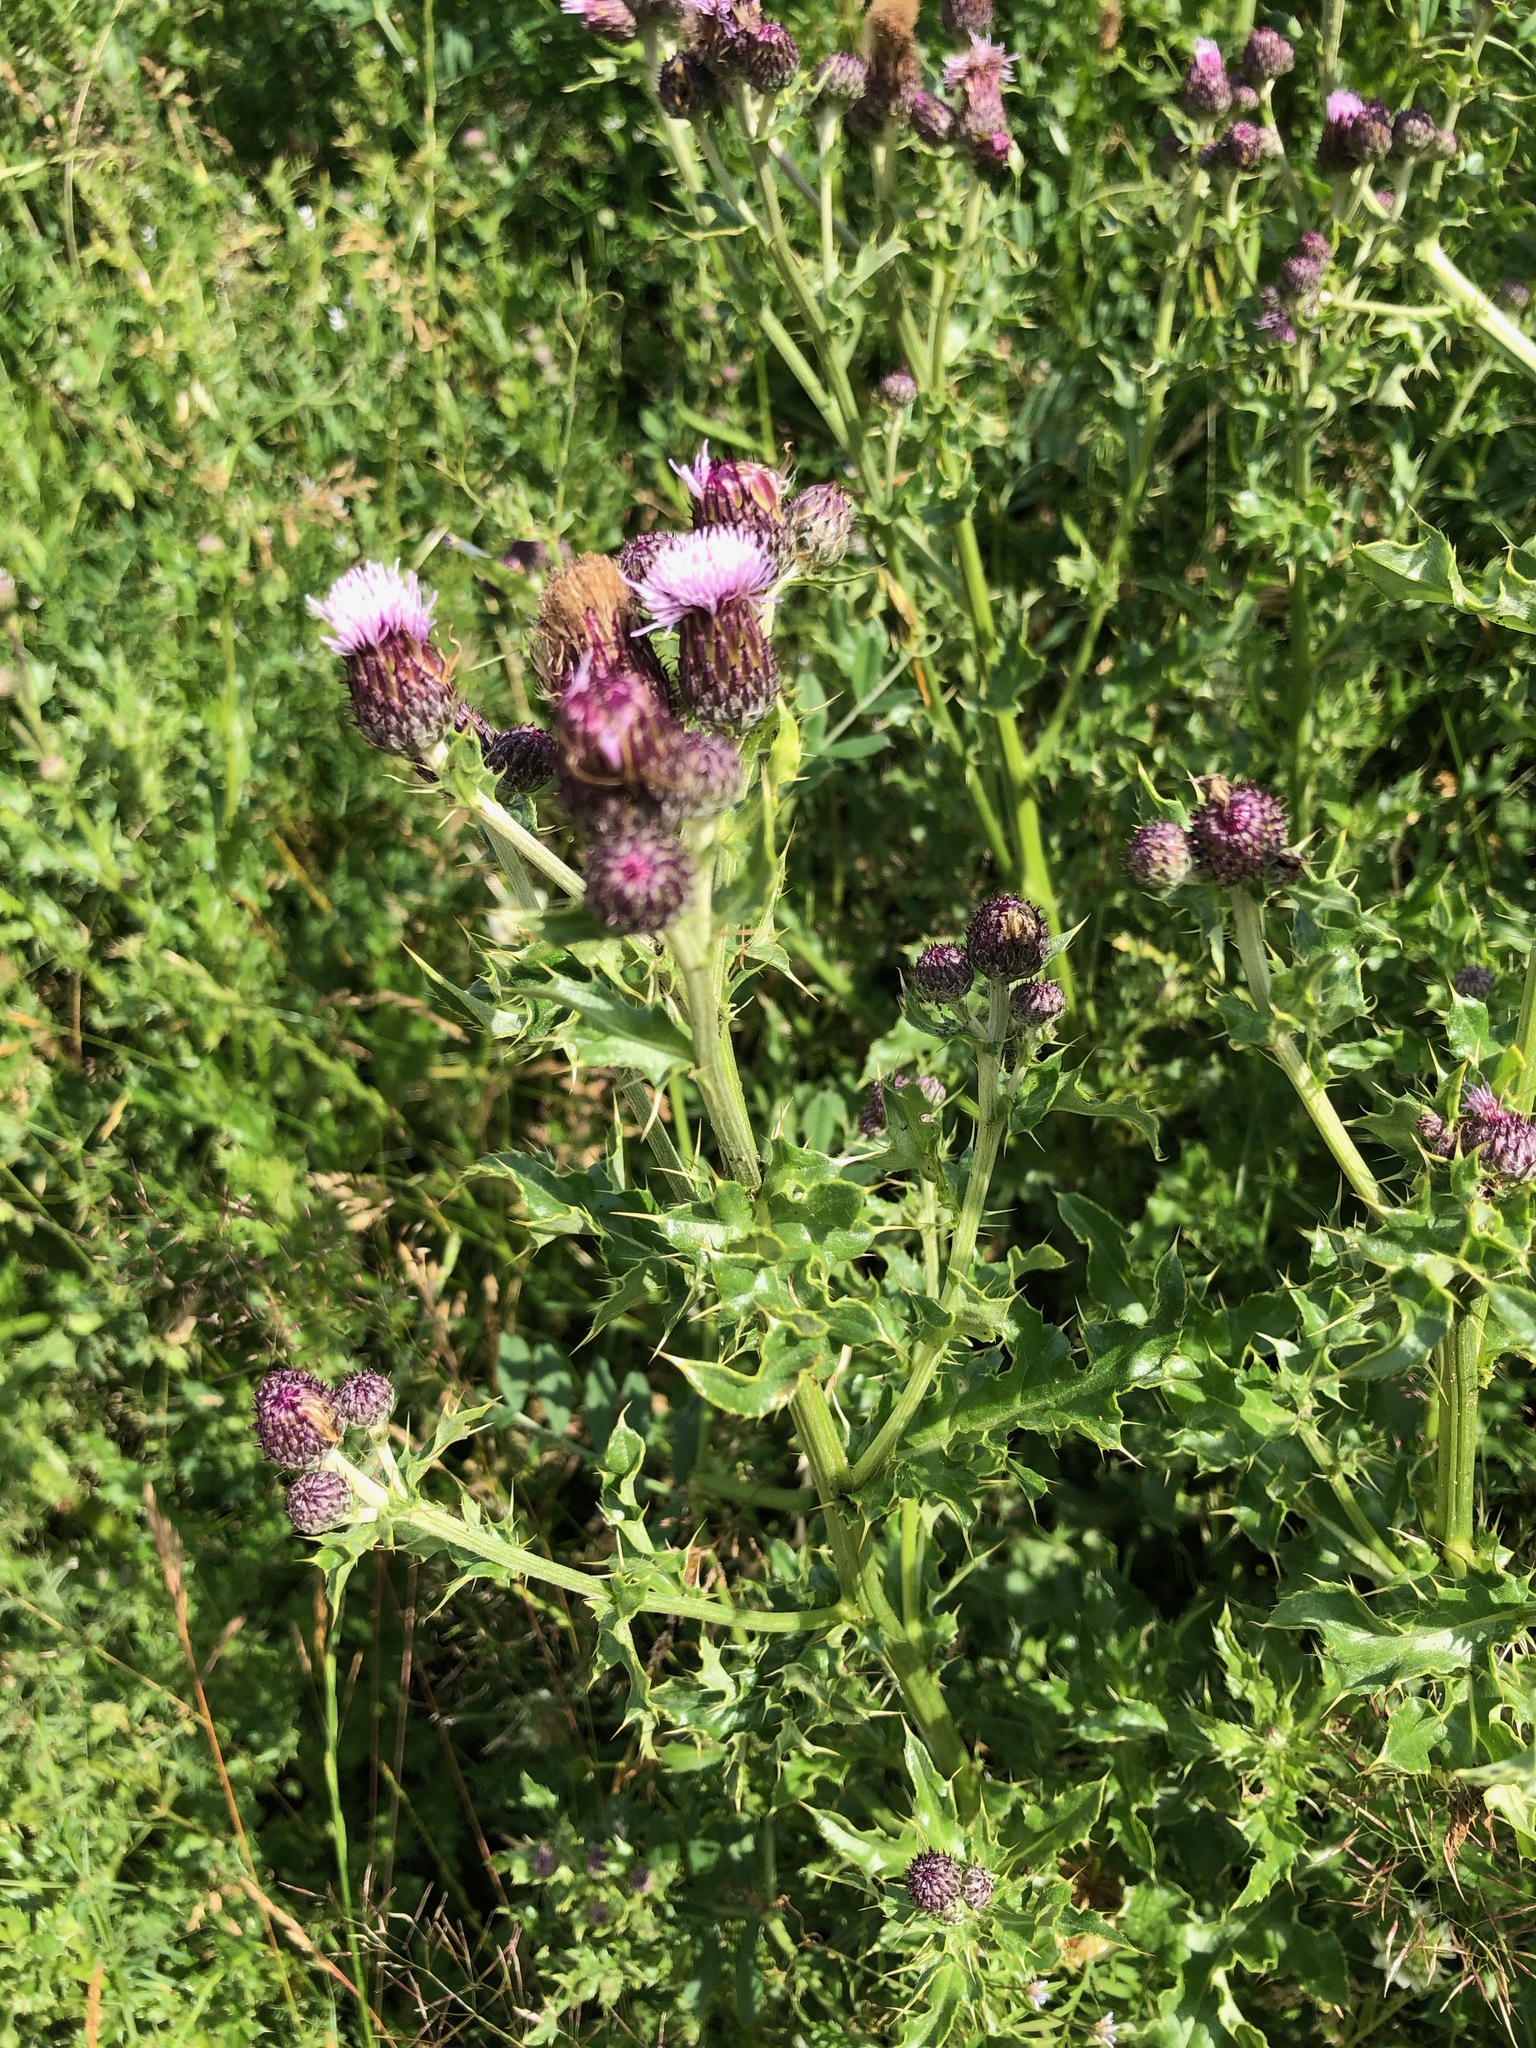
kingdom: Plantae
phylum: Tracheophyta
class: Magnoliopsida
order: Asterales
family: Asteraceae
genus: Cirsium
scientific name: Cirsium arvense
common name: Creeping thistle
